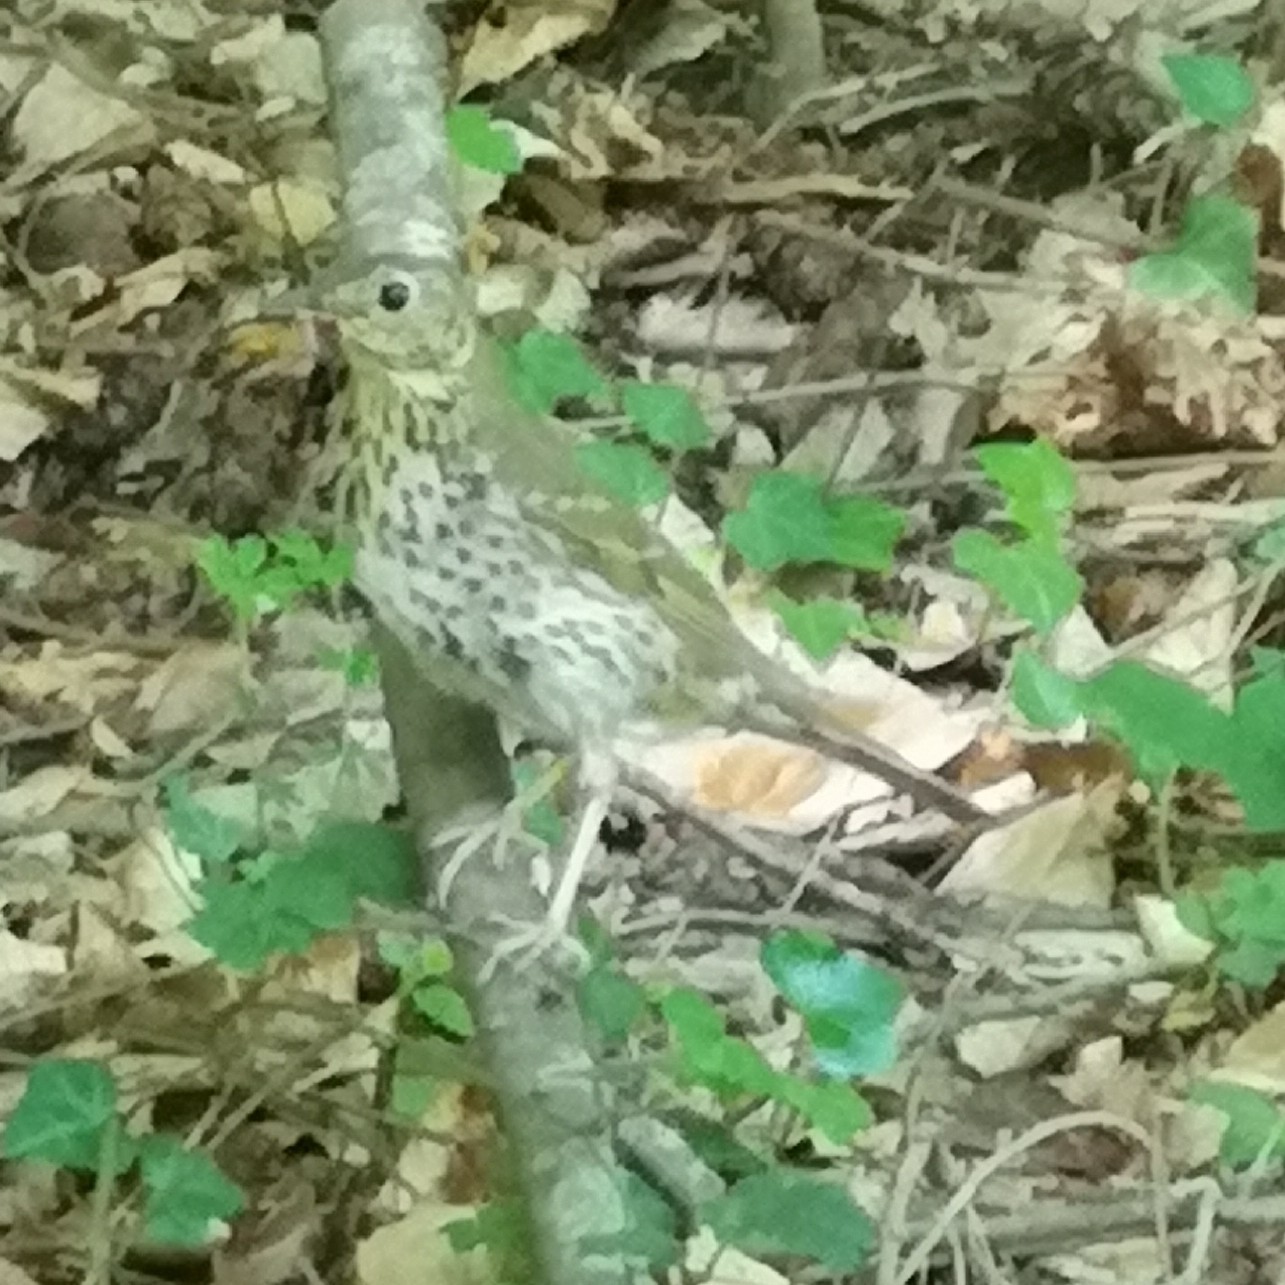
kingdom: Animalia
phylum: Chordata
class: Aves
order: Passeriformes
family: Turdidae
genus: Turdus
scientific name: Turdus philomelos
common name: Song thrush
